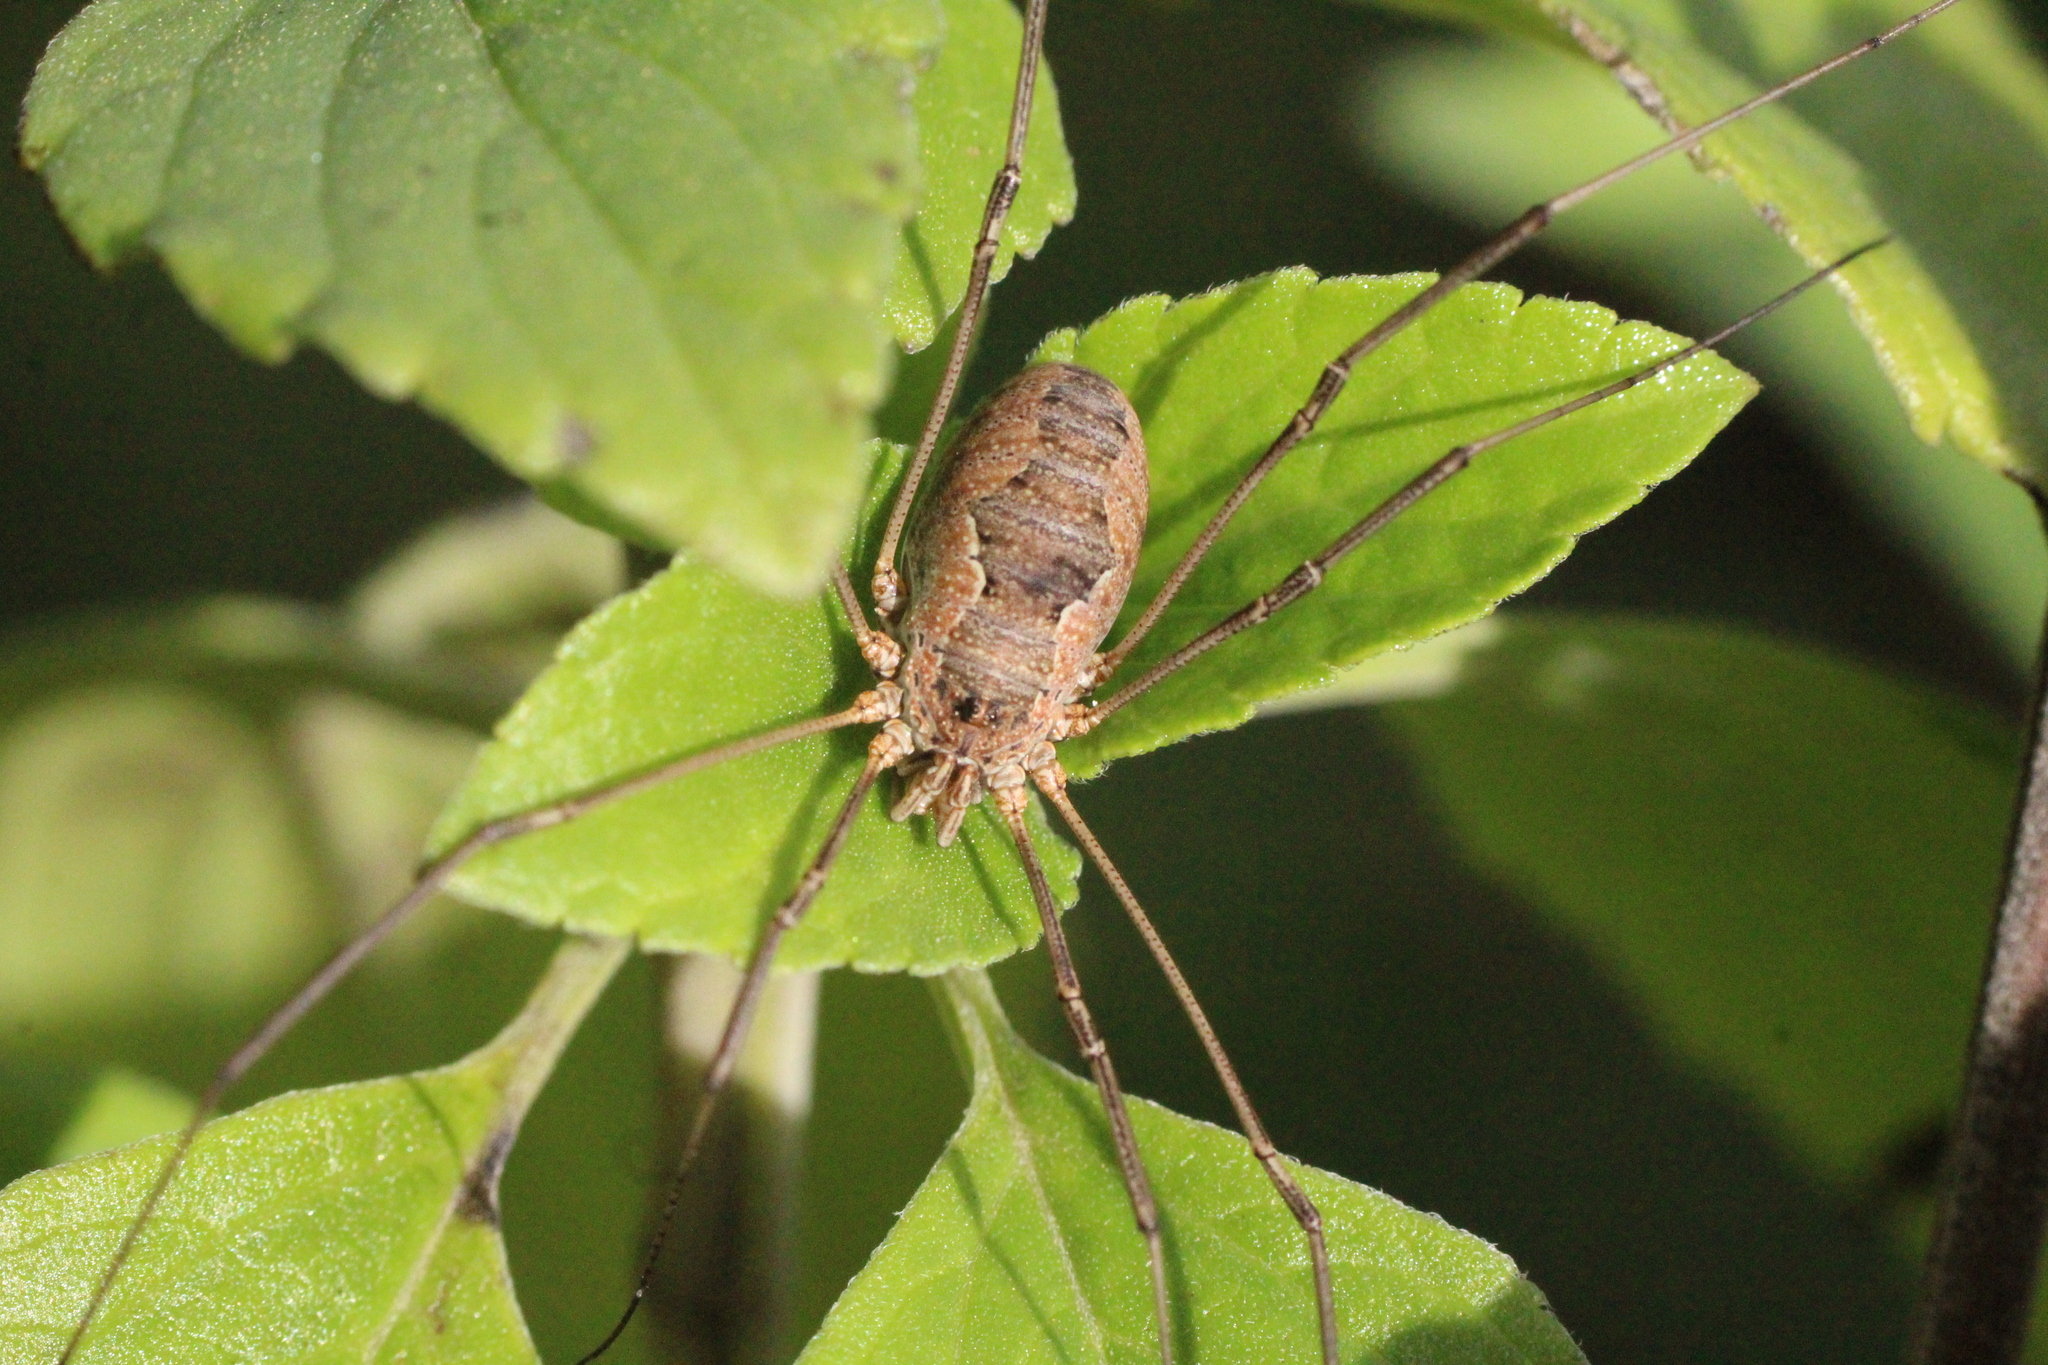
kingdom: Animalia
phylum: Arthropoda
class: Arachnida
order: Opiliones
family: Phalangiidae
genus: Phalangium
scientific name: Phalangium opilio
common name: Daddy longleg
